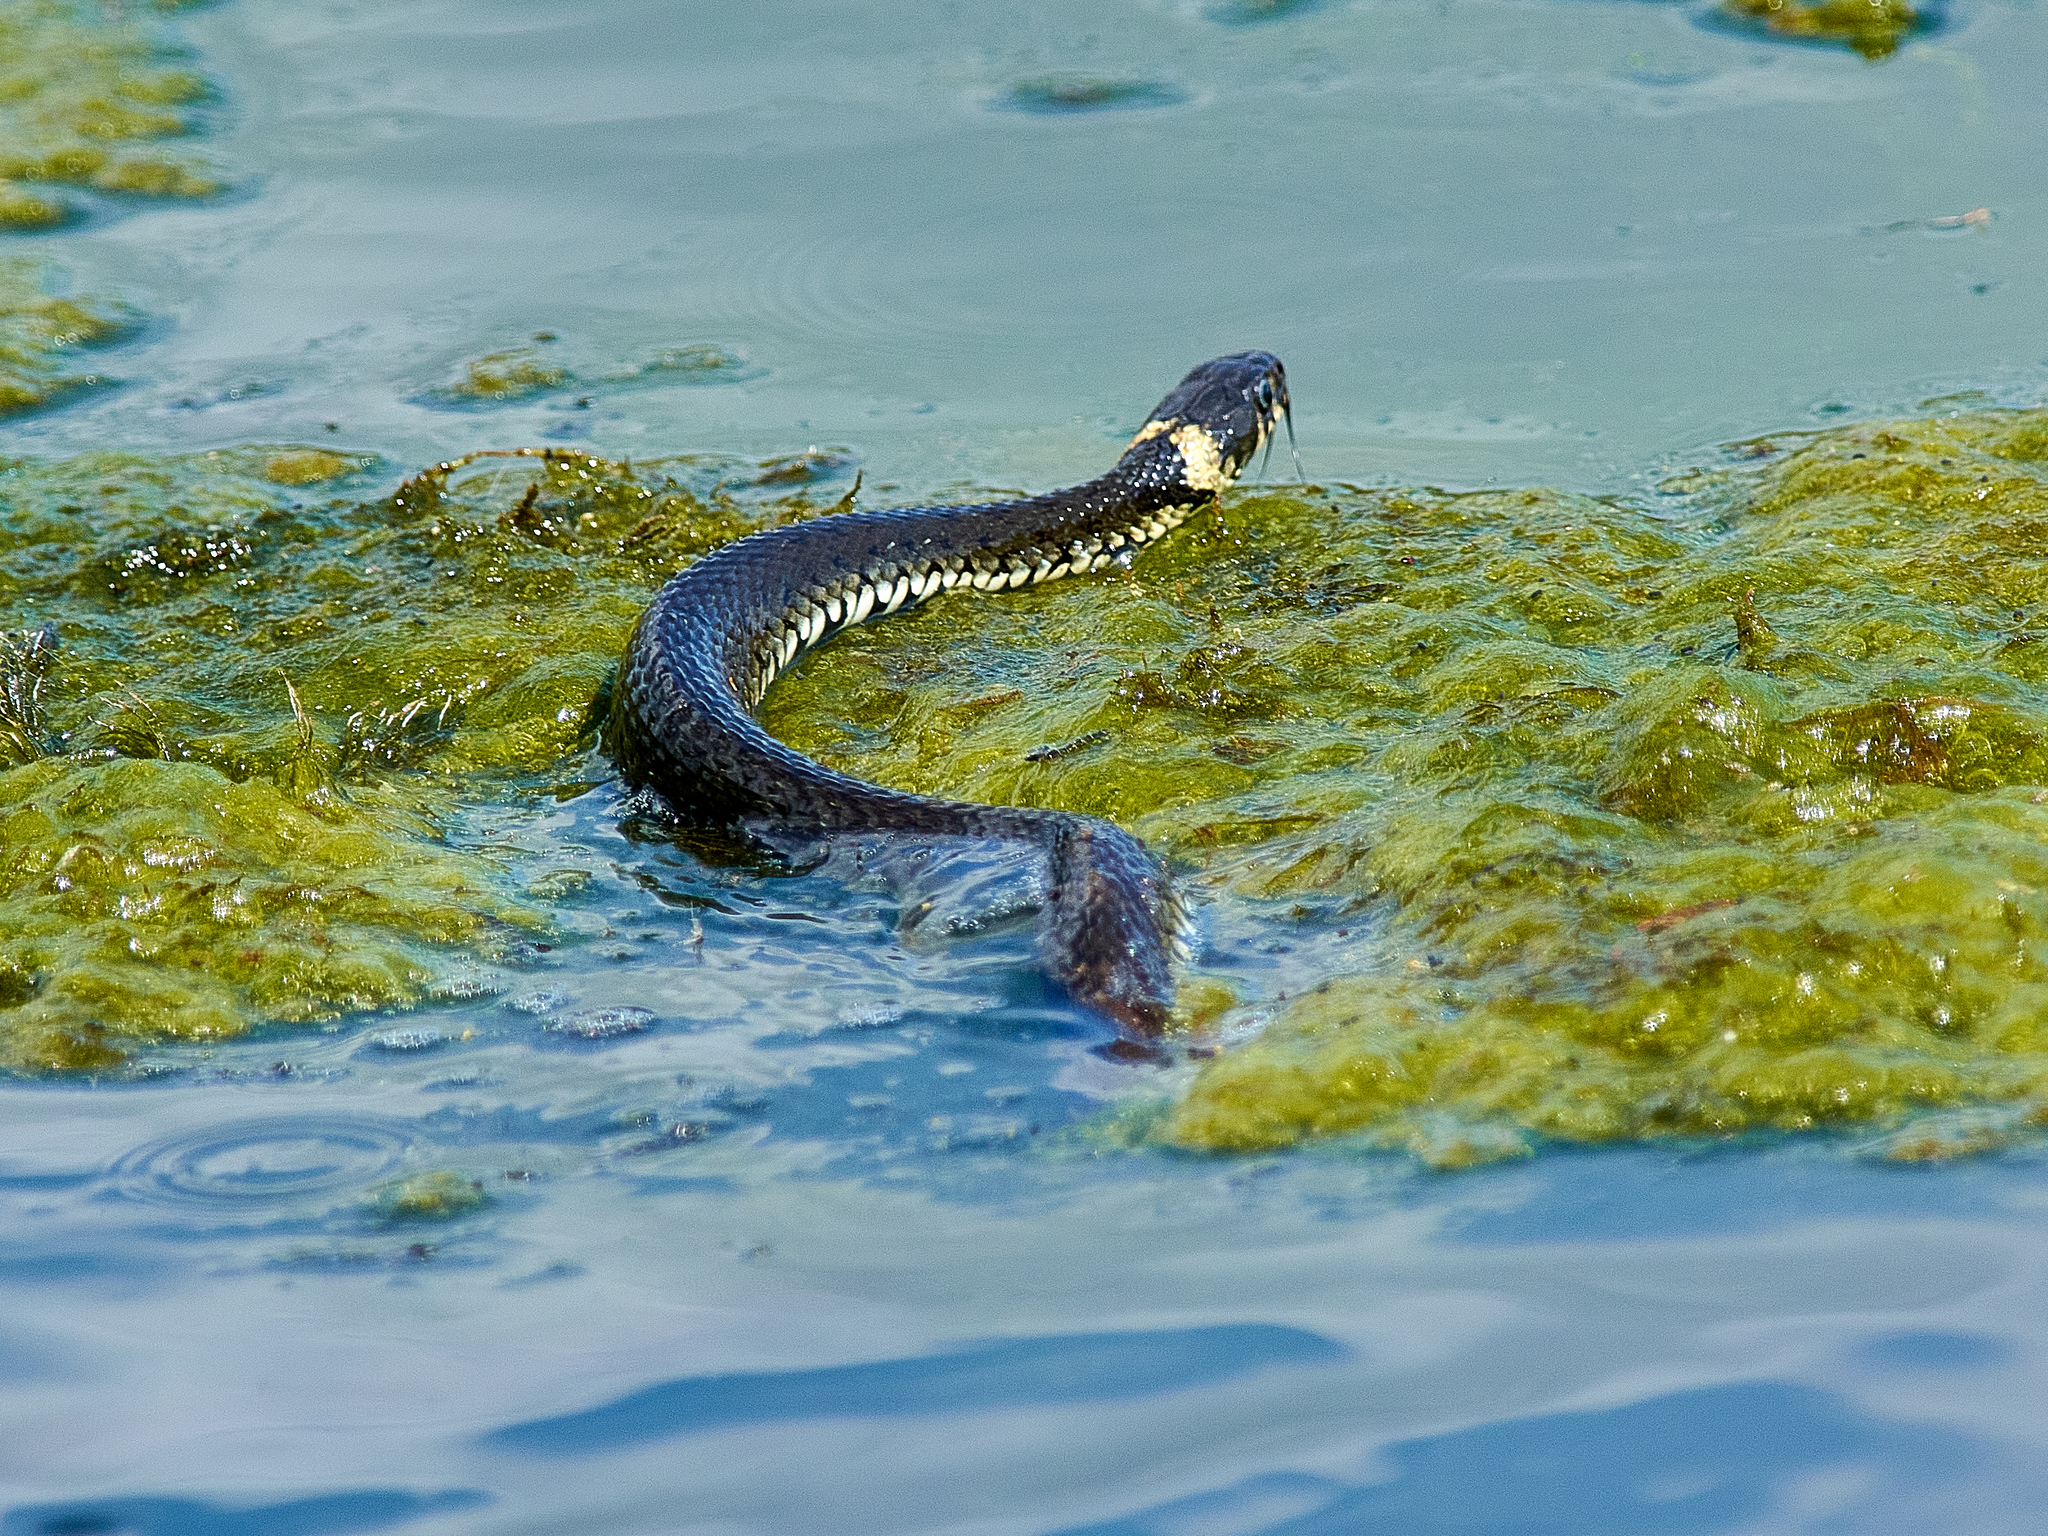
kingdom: Animalia
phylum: Chordata
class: Squamata
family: Colubridae
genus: Natrix
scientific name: Natrix natrix
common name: Grass snake
